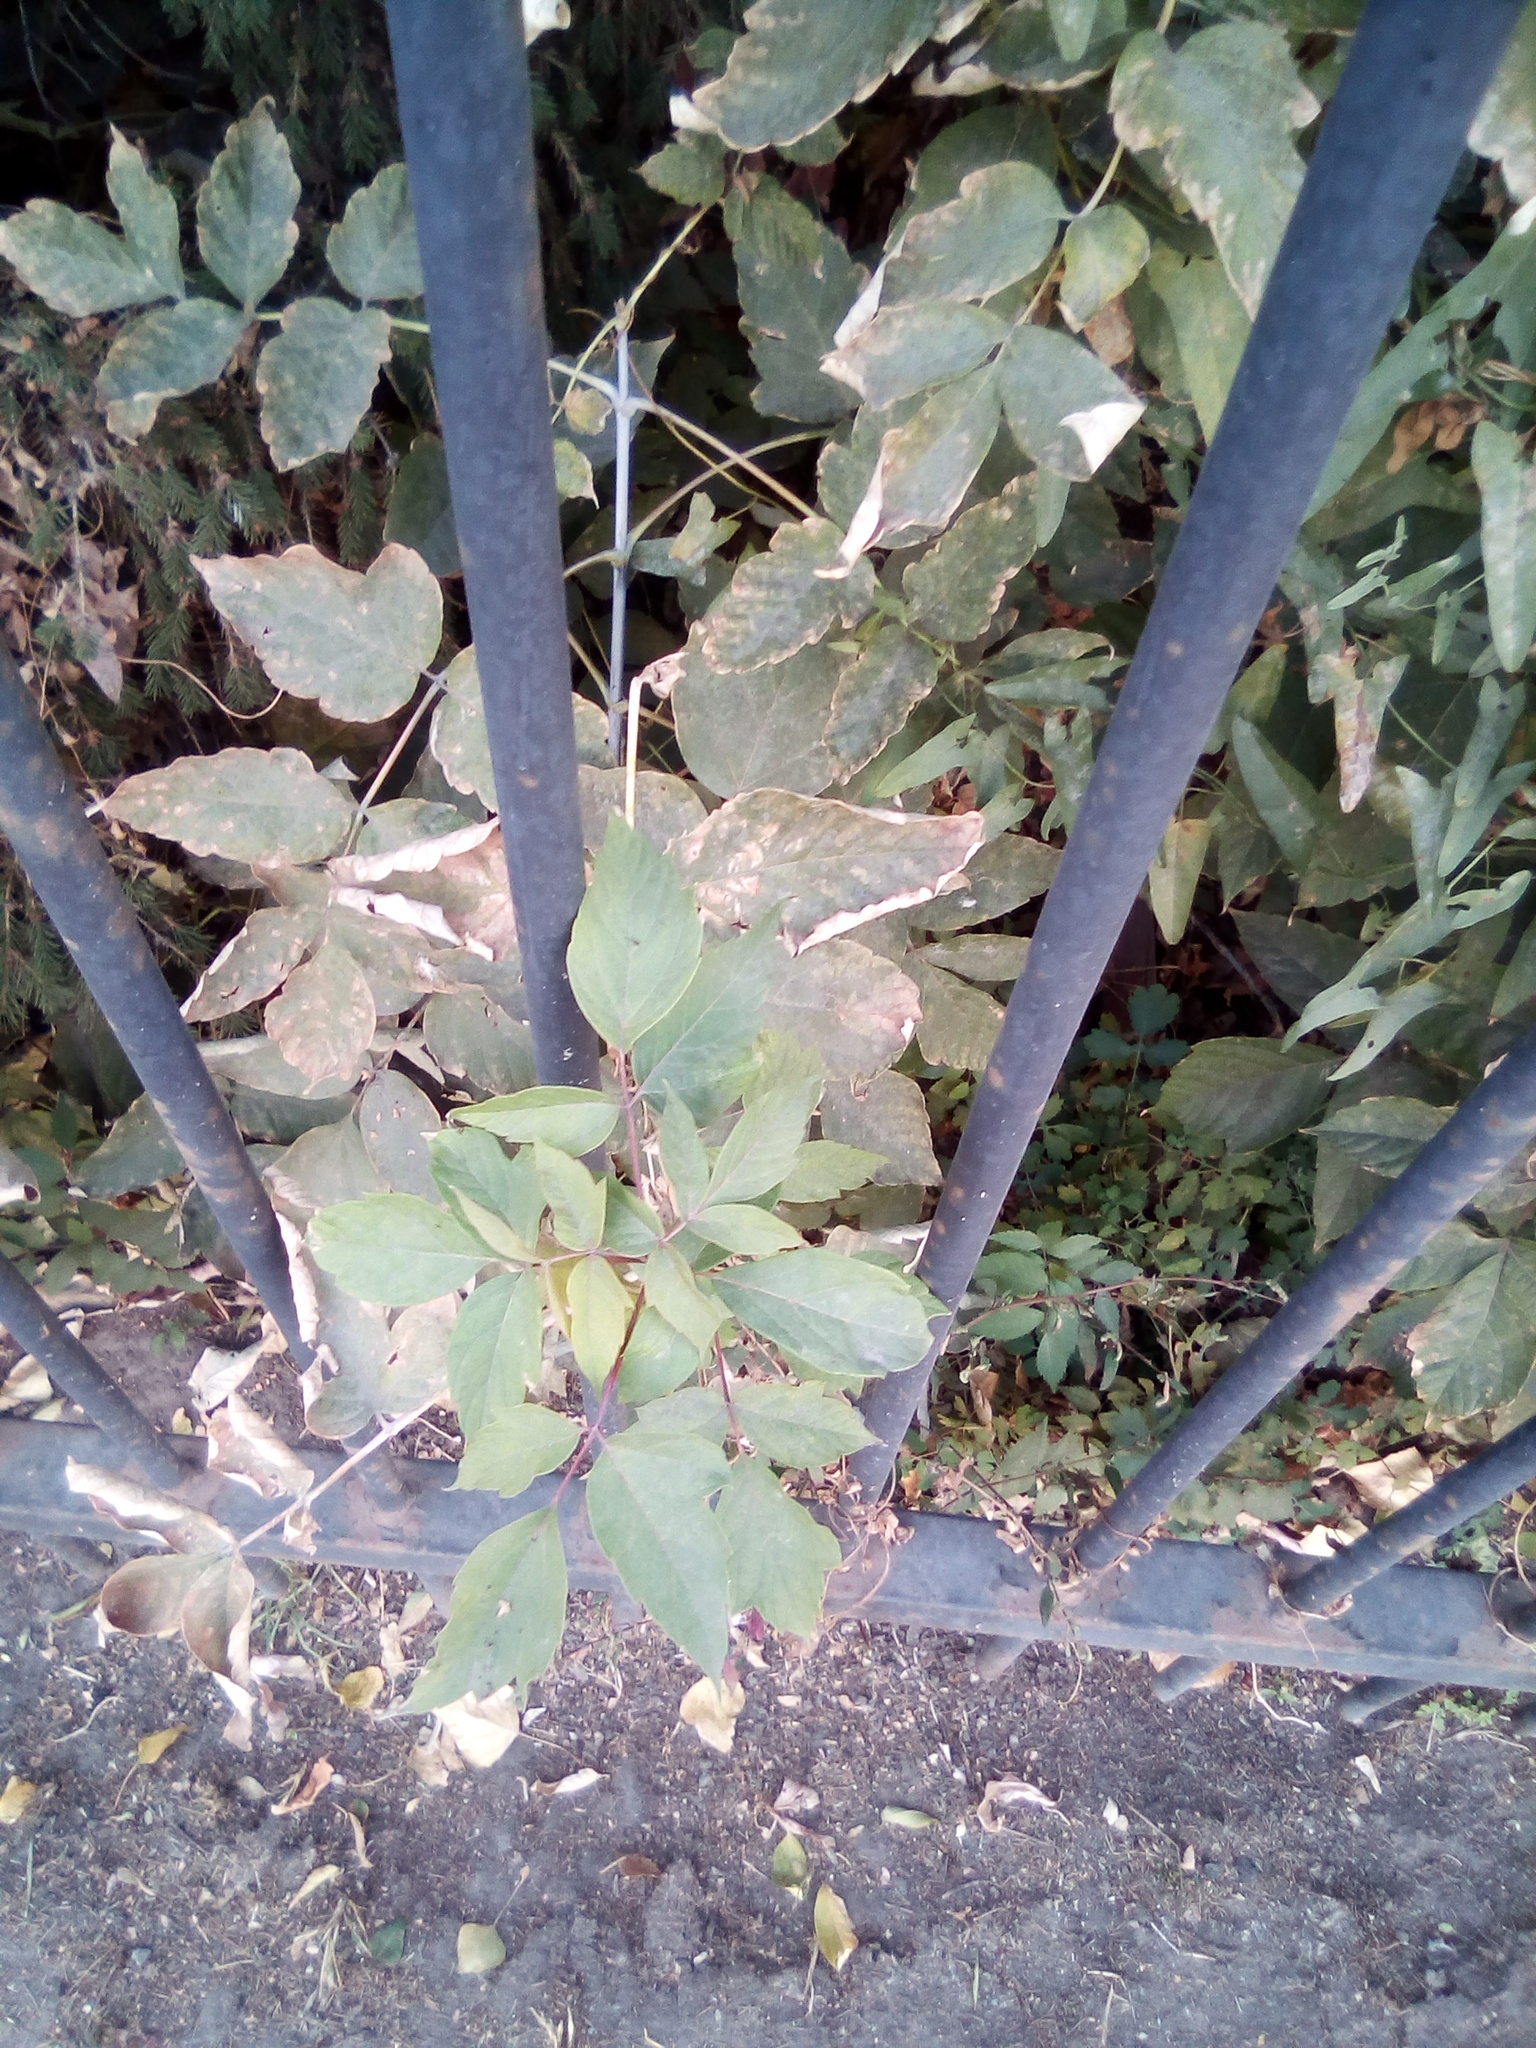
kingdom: Plantae
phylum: Tracheophyta
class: Magnoliopsida
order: Sapindales
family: Sapindaceae
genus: Acer
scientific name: Acer negundo
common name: Ashleaf maple
